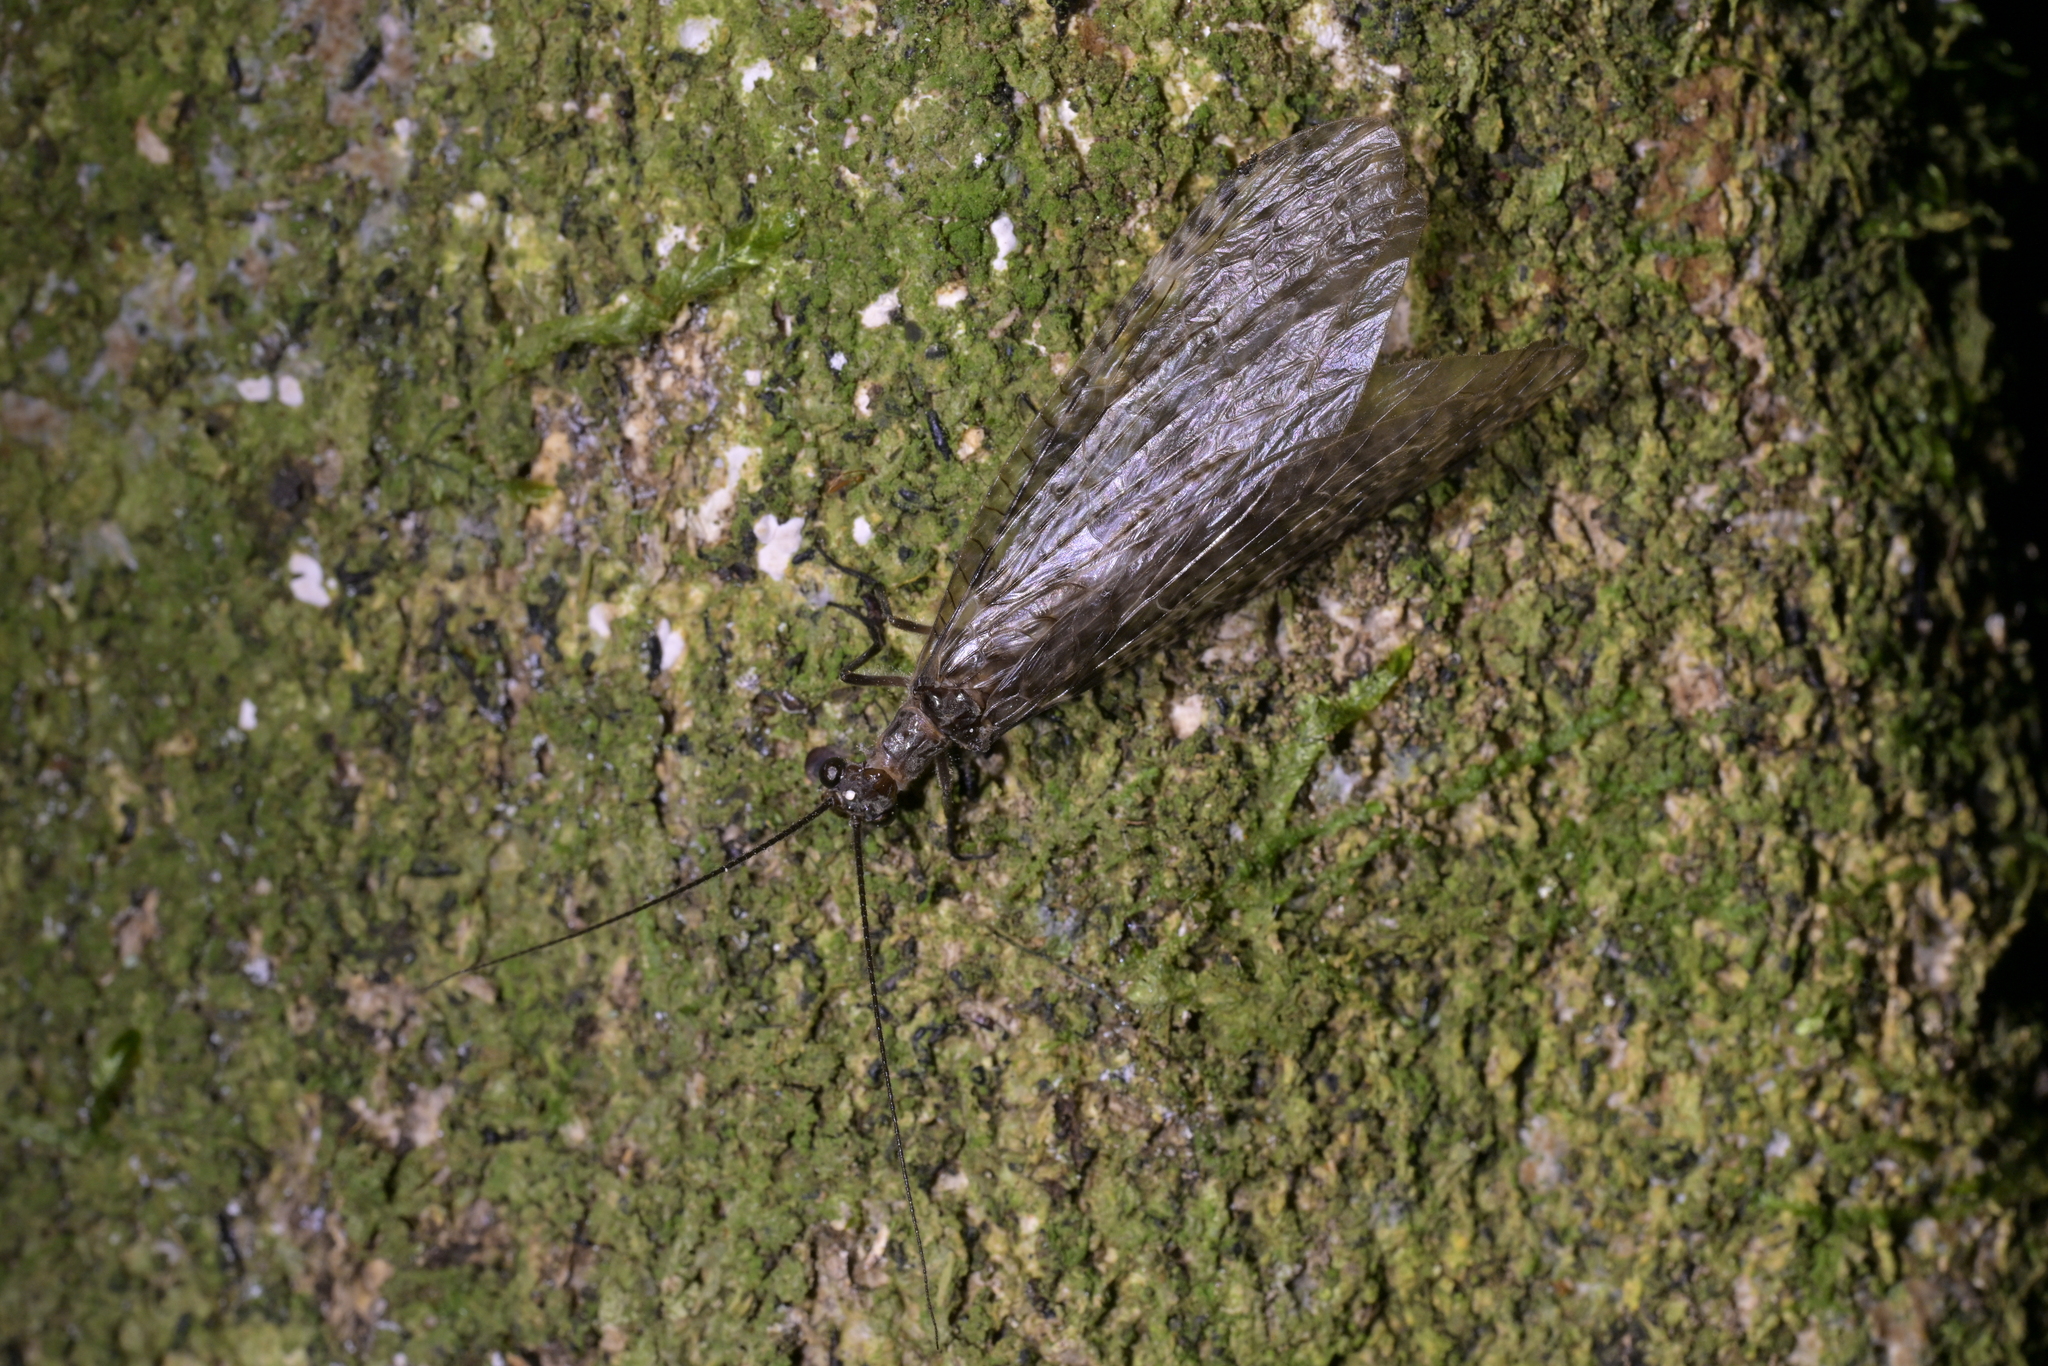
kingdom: Animalia
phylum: Arthropoda
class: Insecta
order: Megaloptera
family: Corydalidae
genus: Archichauliodes
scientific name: Archichauliodes diversus
